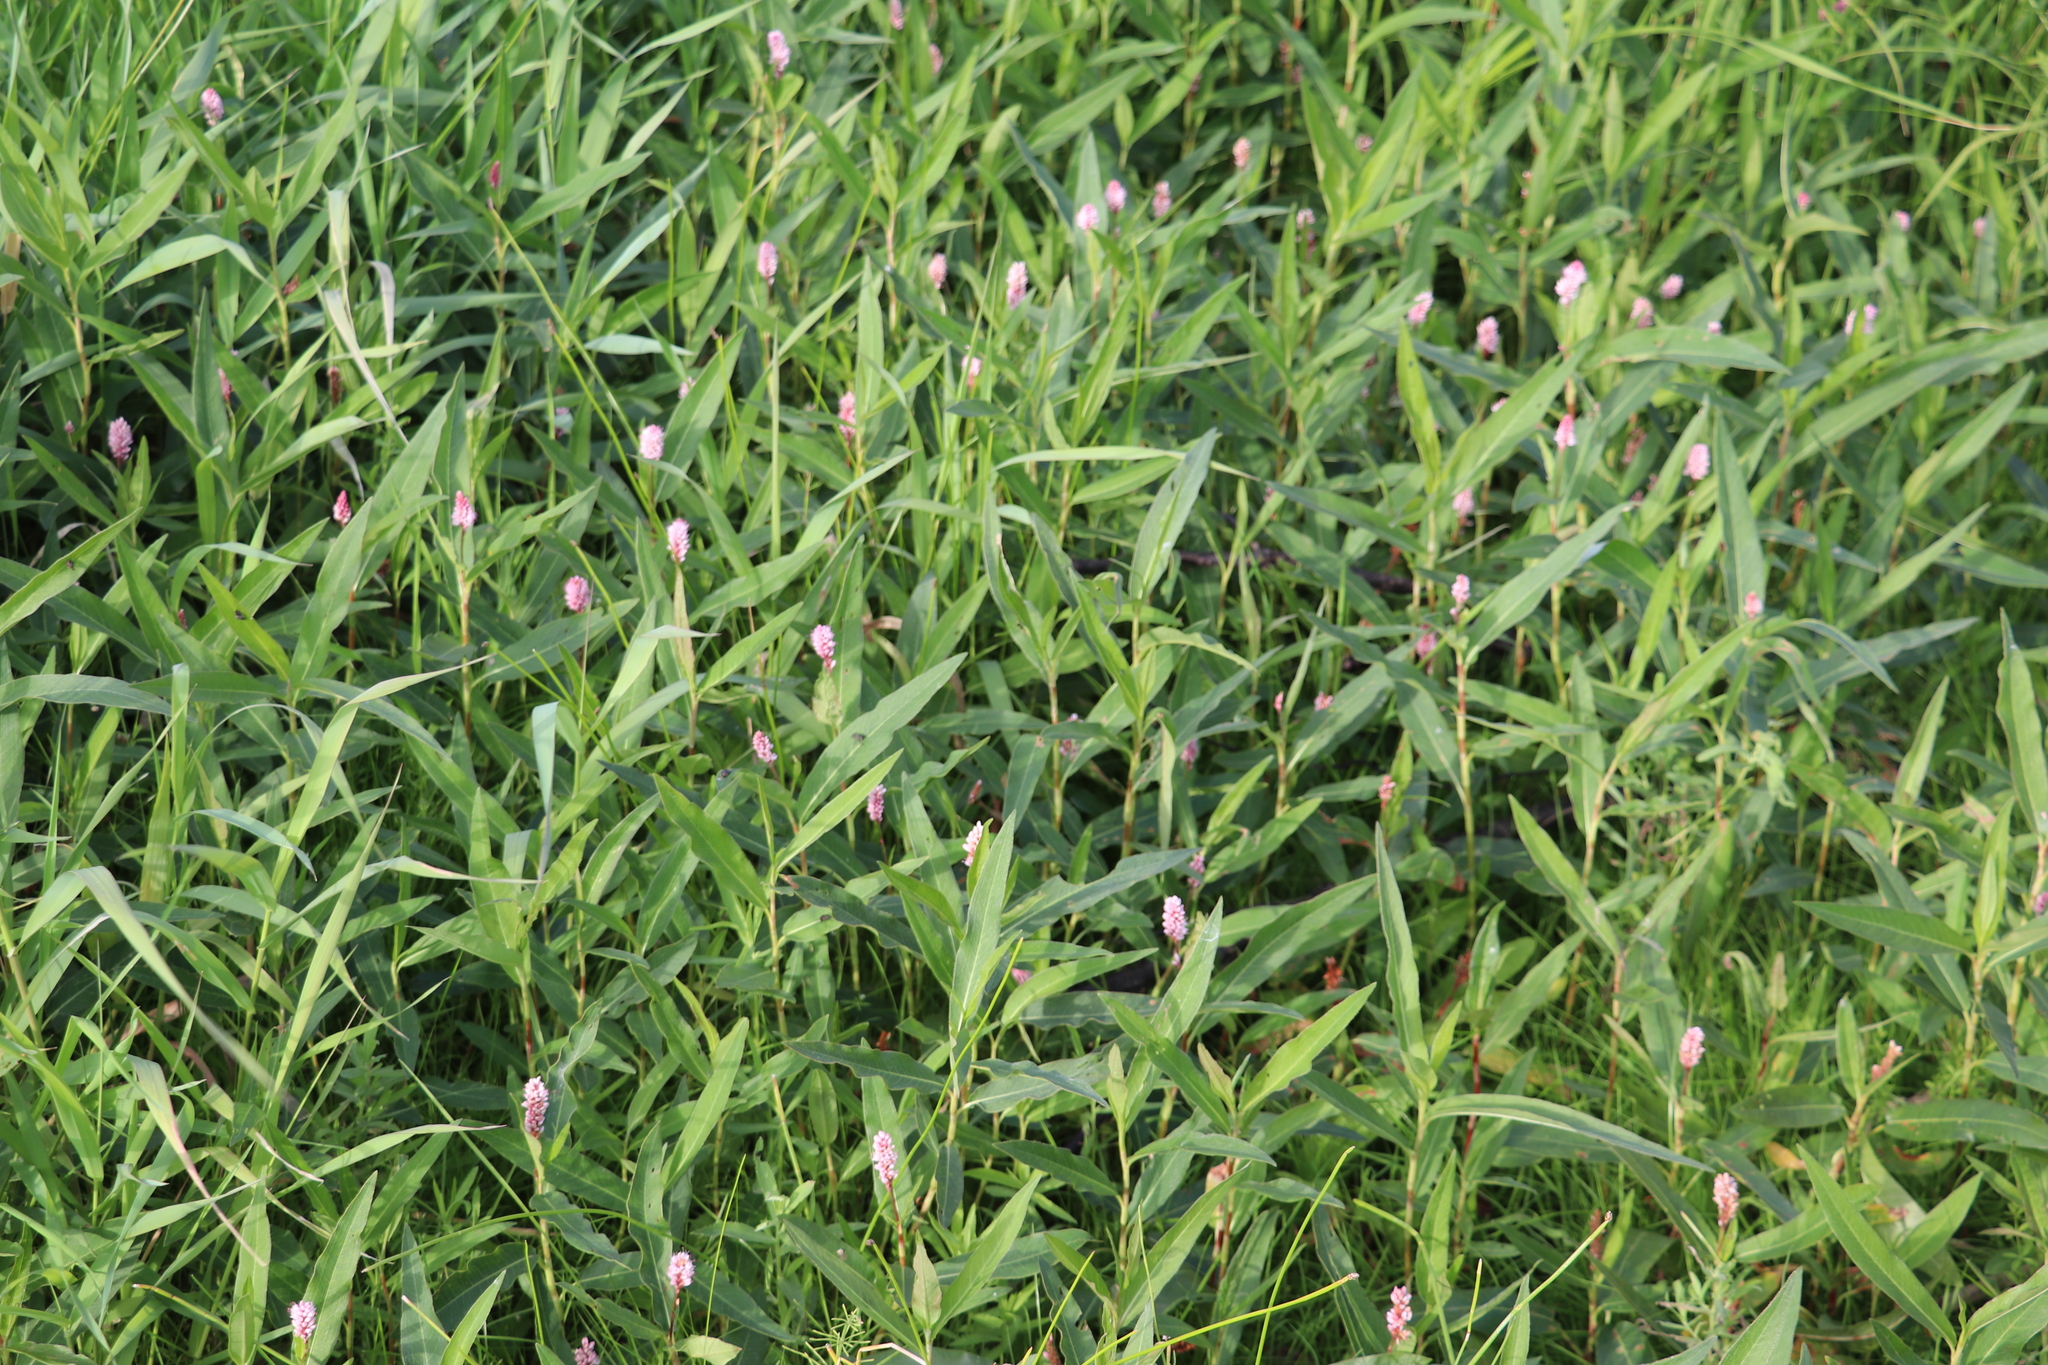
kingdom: Plantae
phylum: Tracheophyta
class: Magnoliopsida
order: Caryophyllales
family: Polygonaceae
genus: Persicaria
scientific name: Persicaria amphibia
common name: Amphibious bistort
